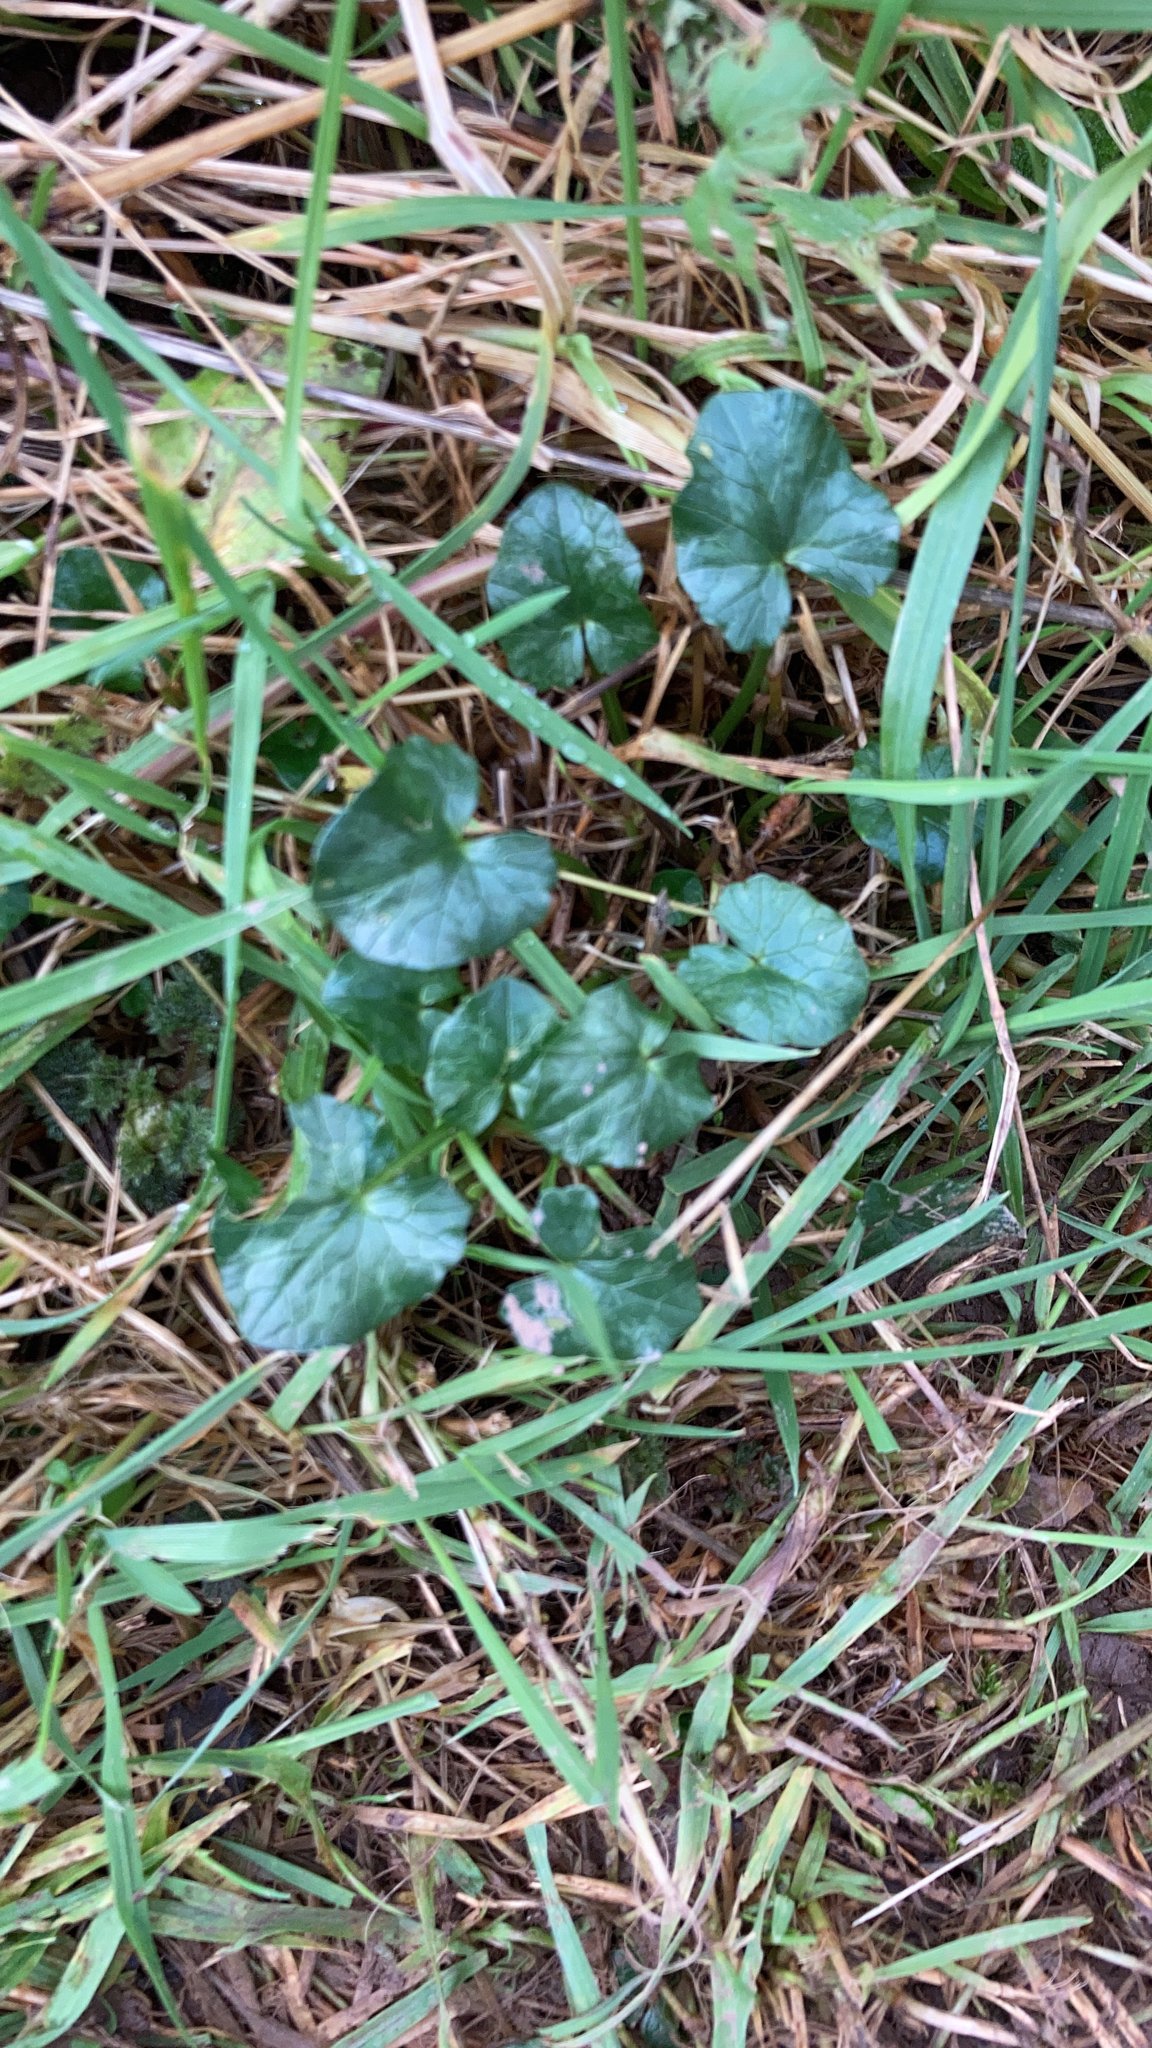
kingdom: Plantae
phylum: Tracheophyta
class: Magnoliopsida
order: Ranunculales
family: Ranunculaceae
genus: Ficaria
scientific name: Ficaria verna
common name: Lesser celandine
